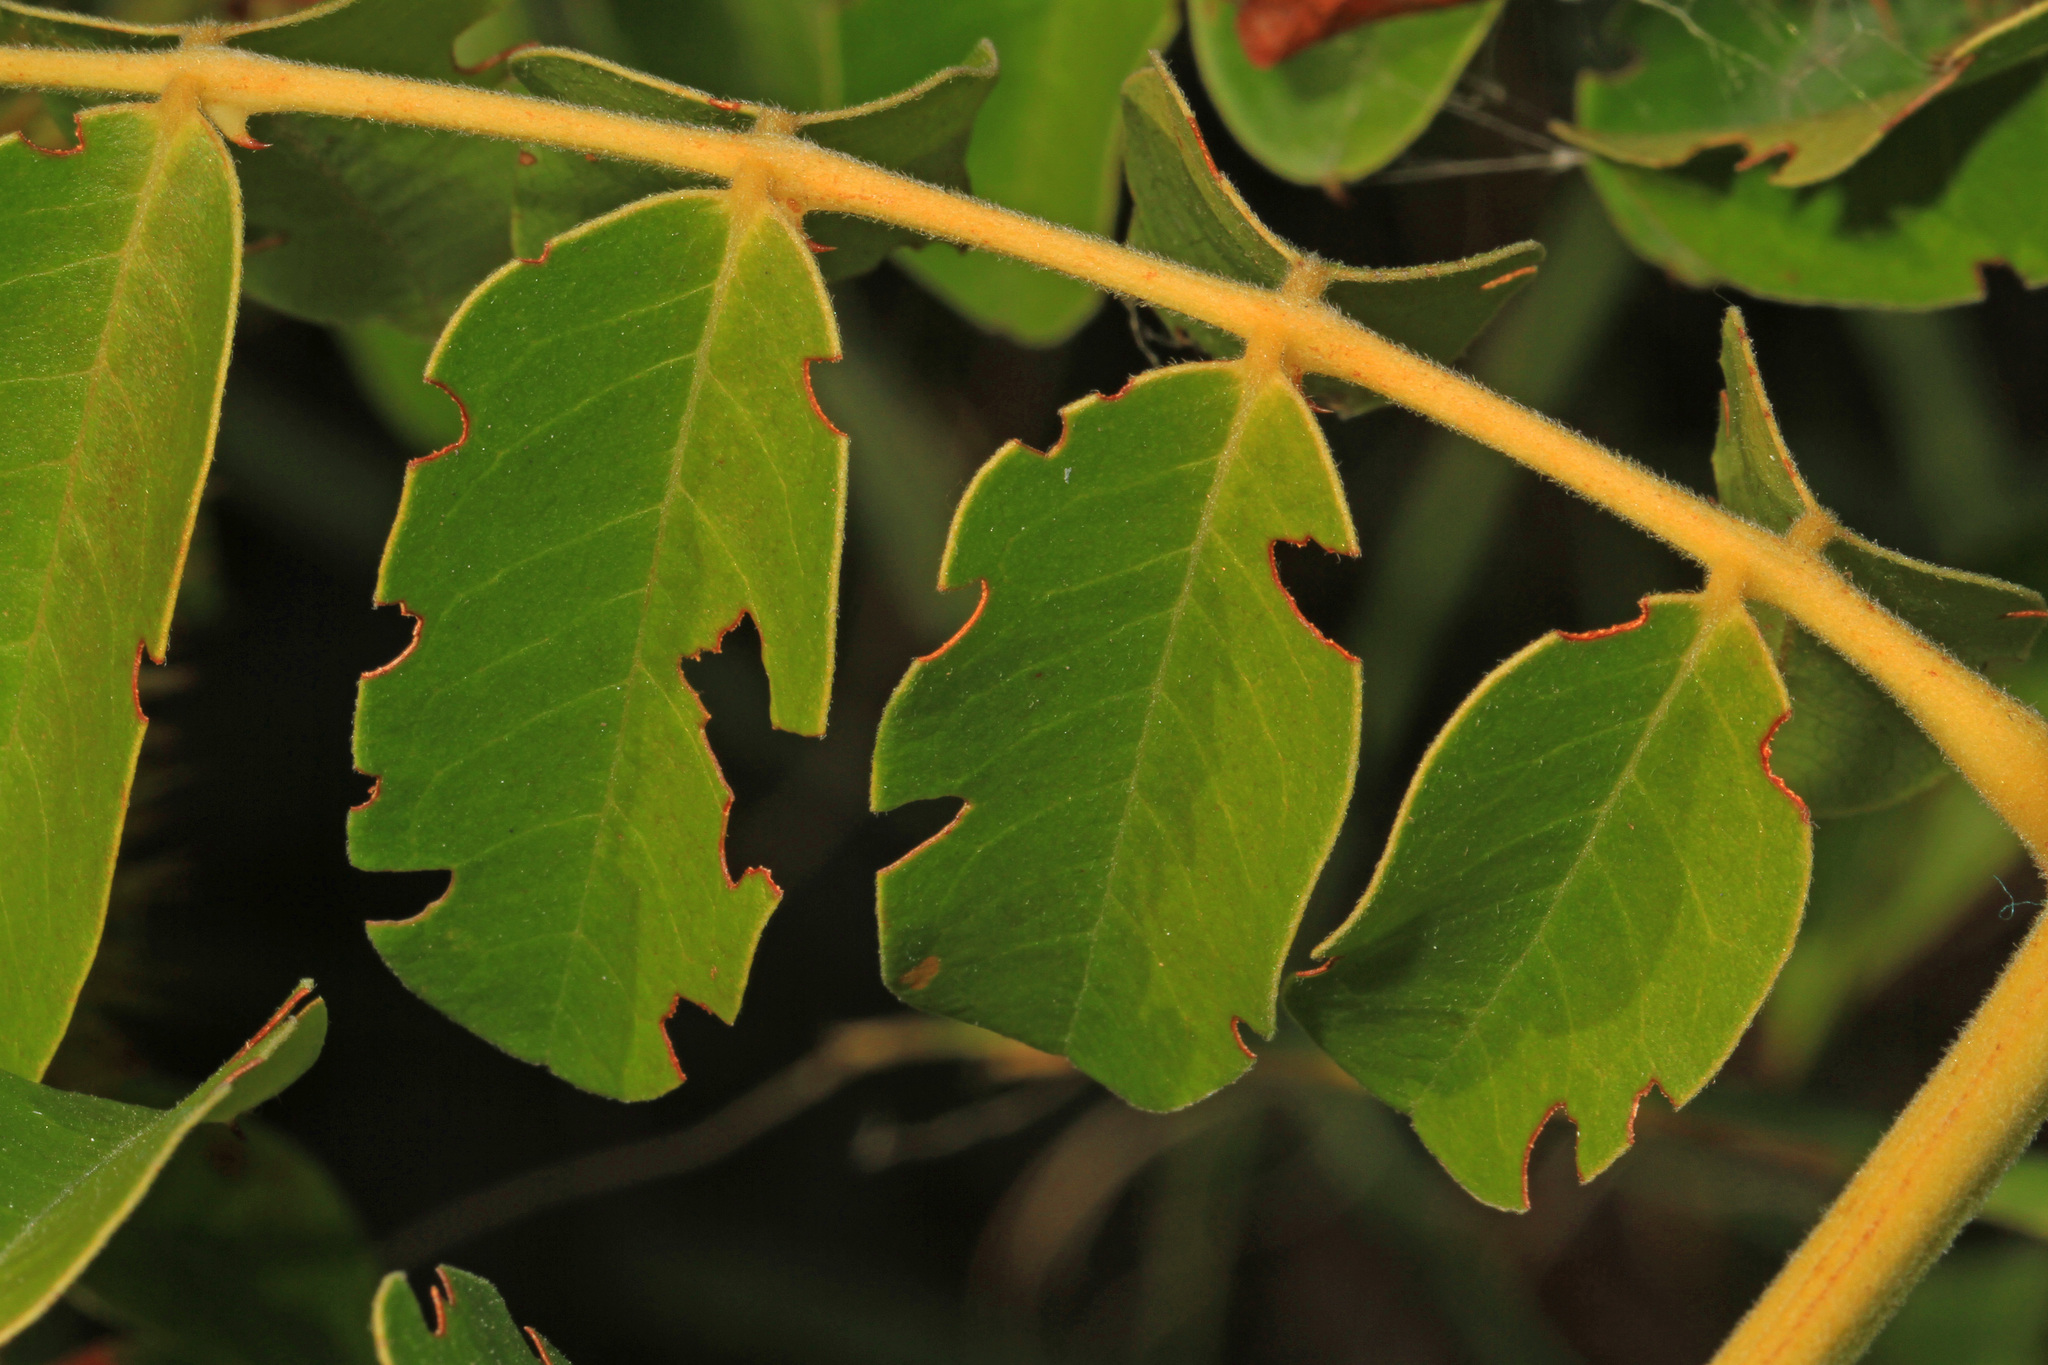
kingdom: Plantae
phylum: Tracheophyta
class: Magnoliopsida
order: Fabales
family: Fabaceae
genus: Guilandina
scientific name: Guilandina bonduc
